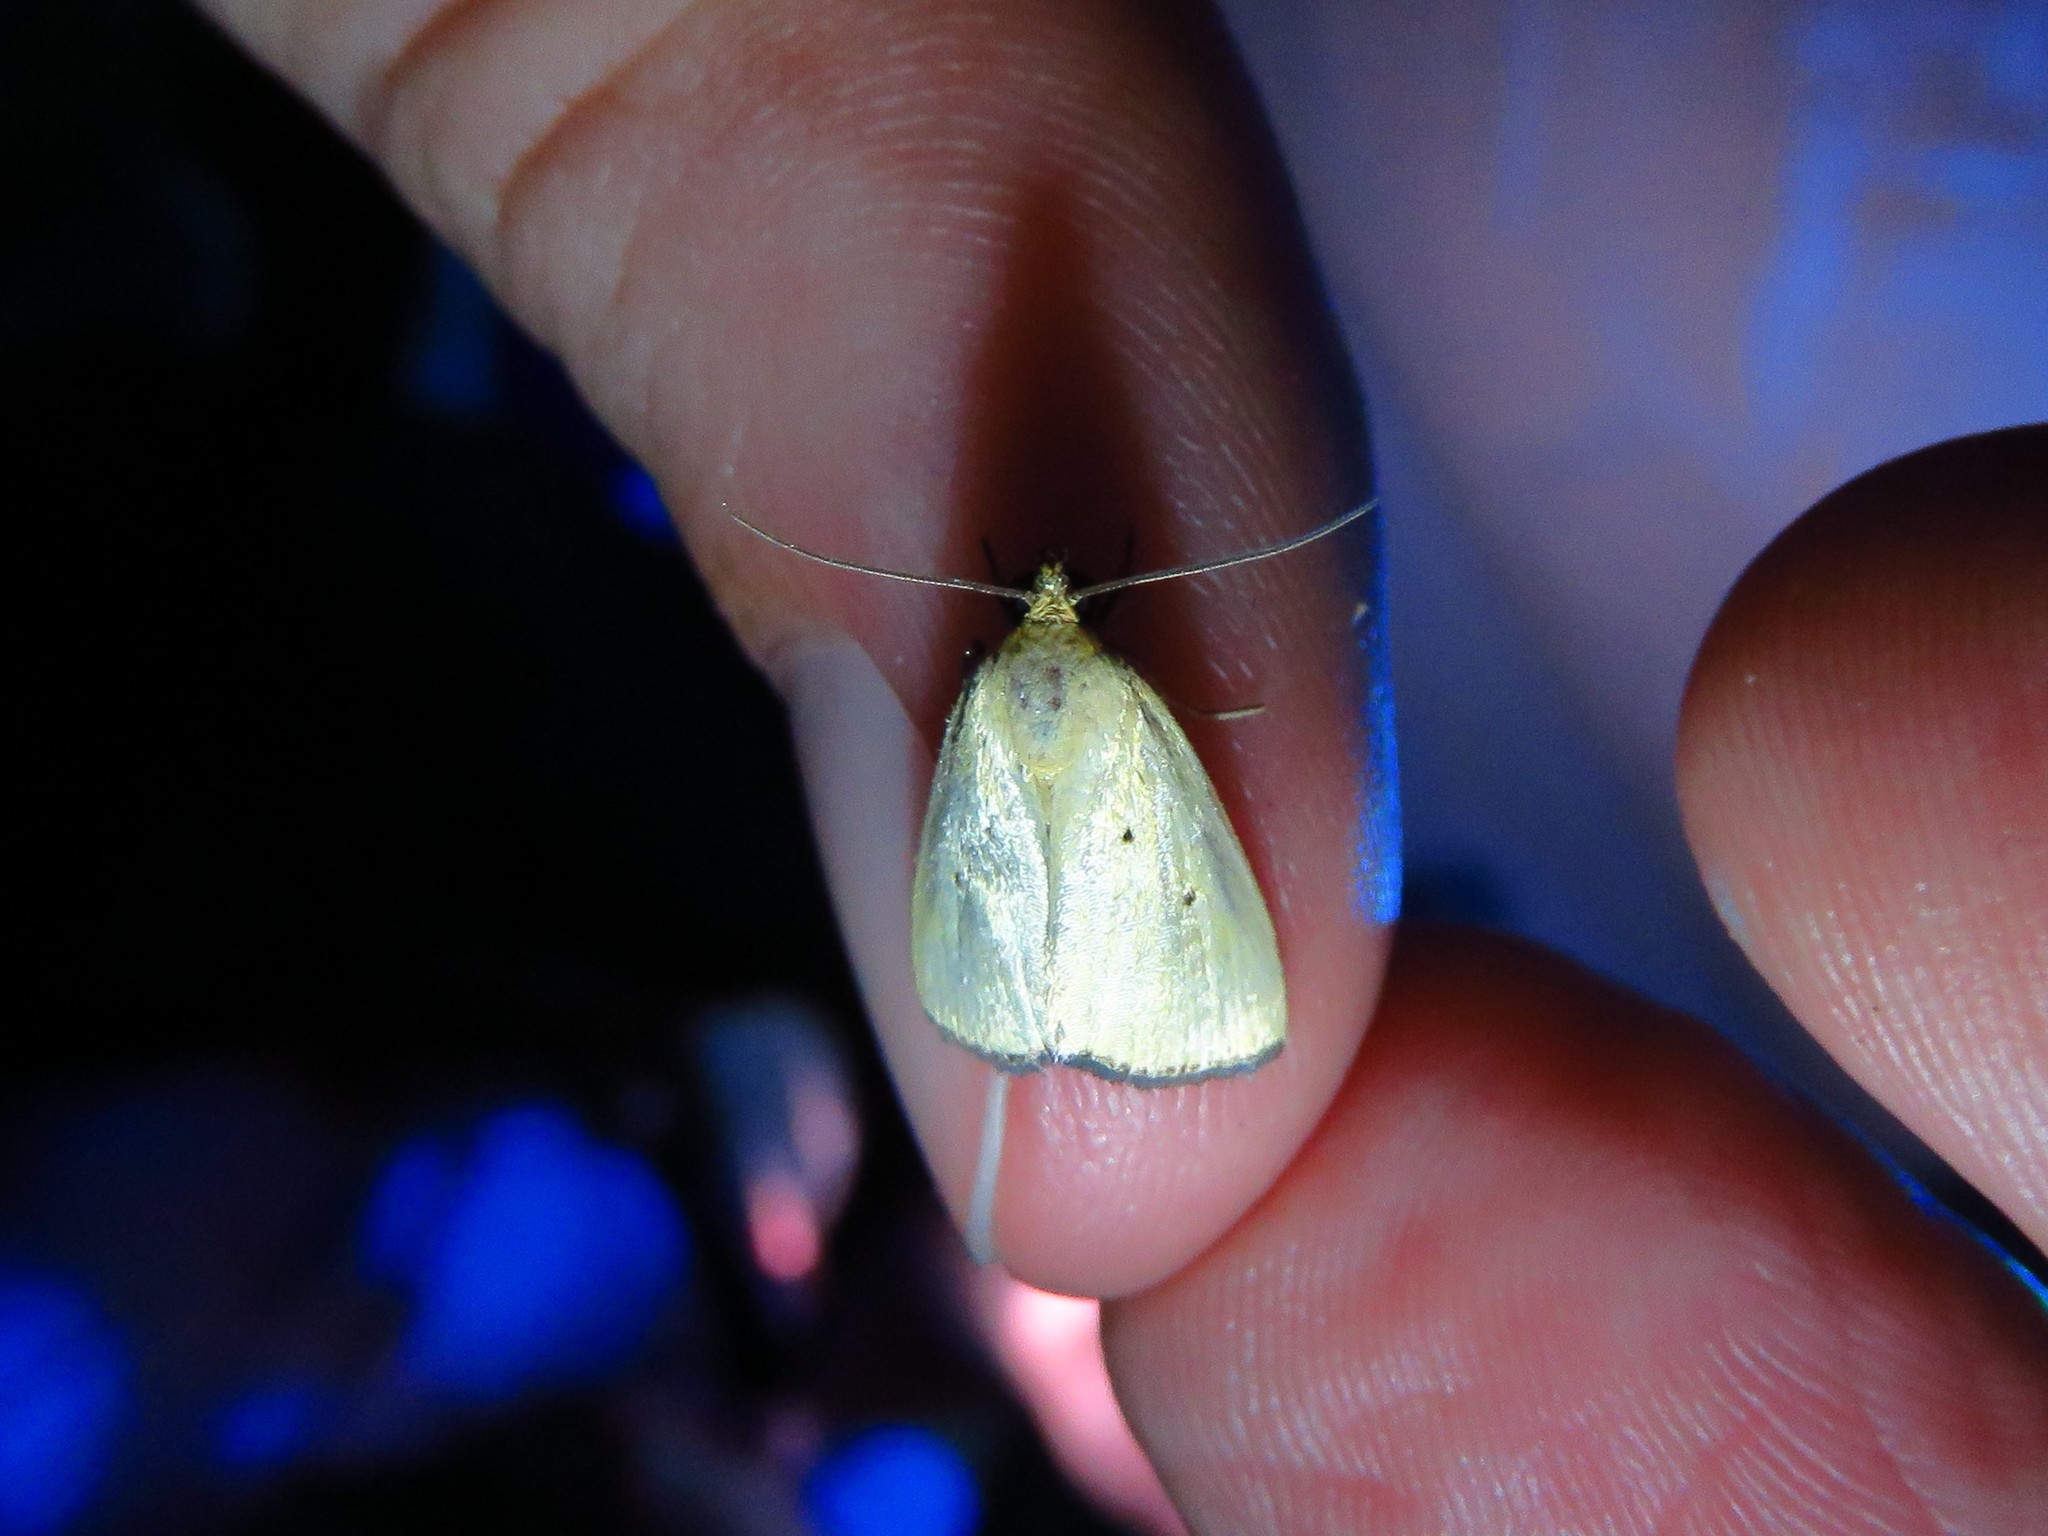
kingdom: Animalia
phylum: Arthropoda
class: Insecta
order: Lepidoptera
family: Noctuidae
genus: Marimatha
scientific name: Marimatha nigrofimbria
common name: Black-bordered lemon moth
